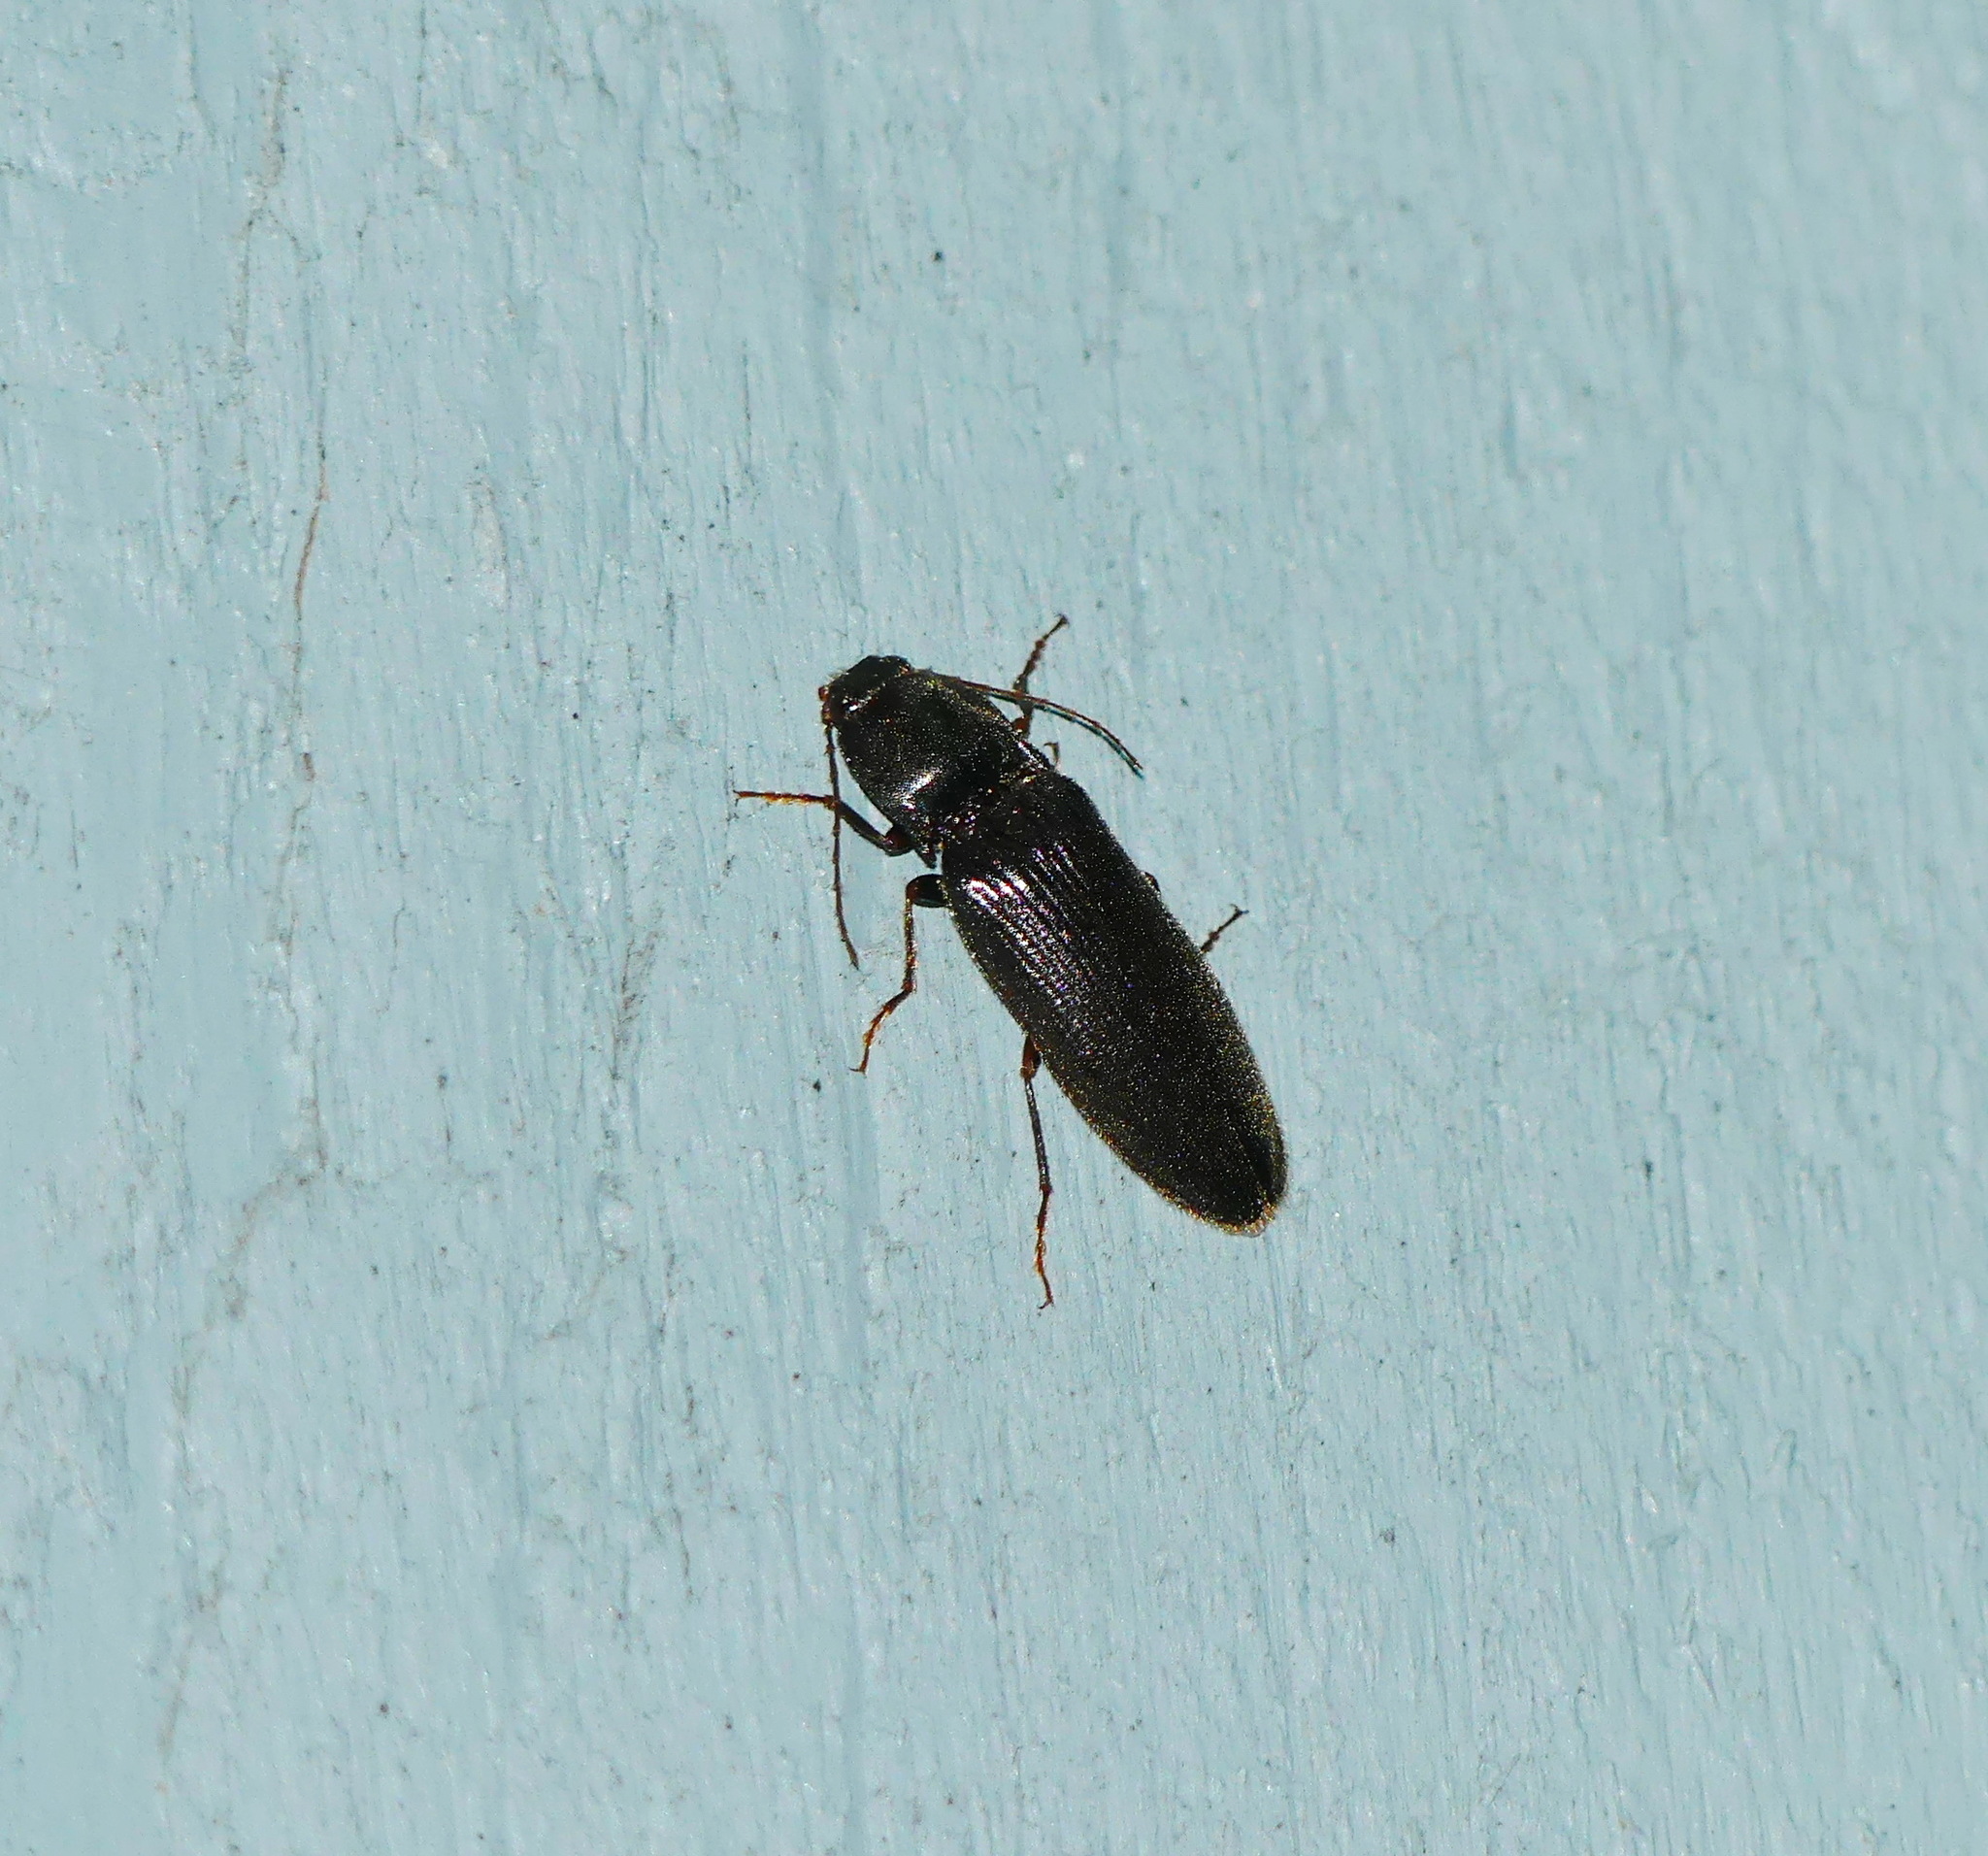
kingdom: Animalia
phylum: Arthropoda
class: Insecta
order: Coleoptera
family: Elateridae
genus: Hemicrepidius
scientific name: Hemicrepidius
